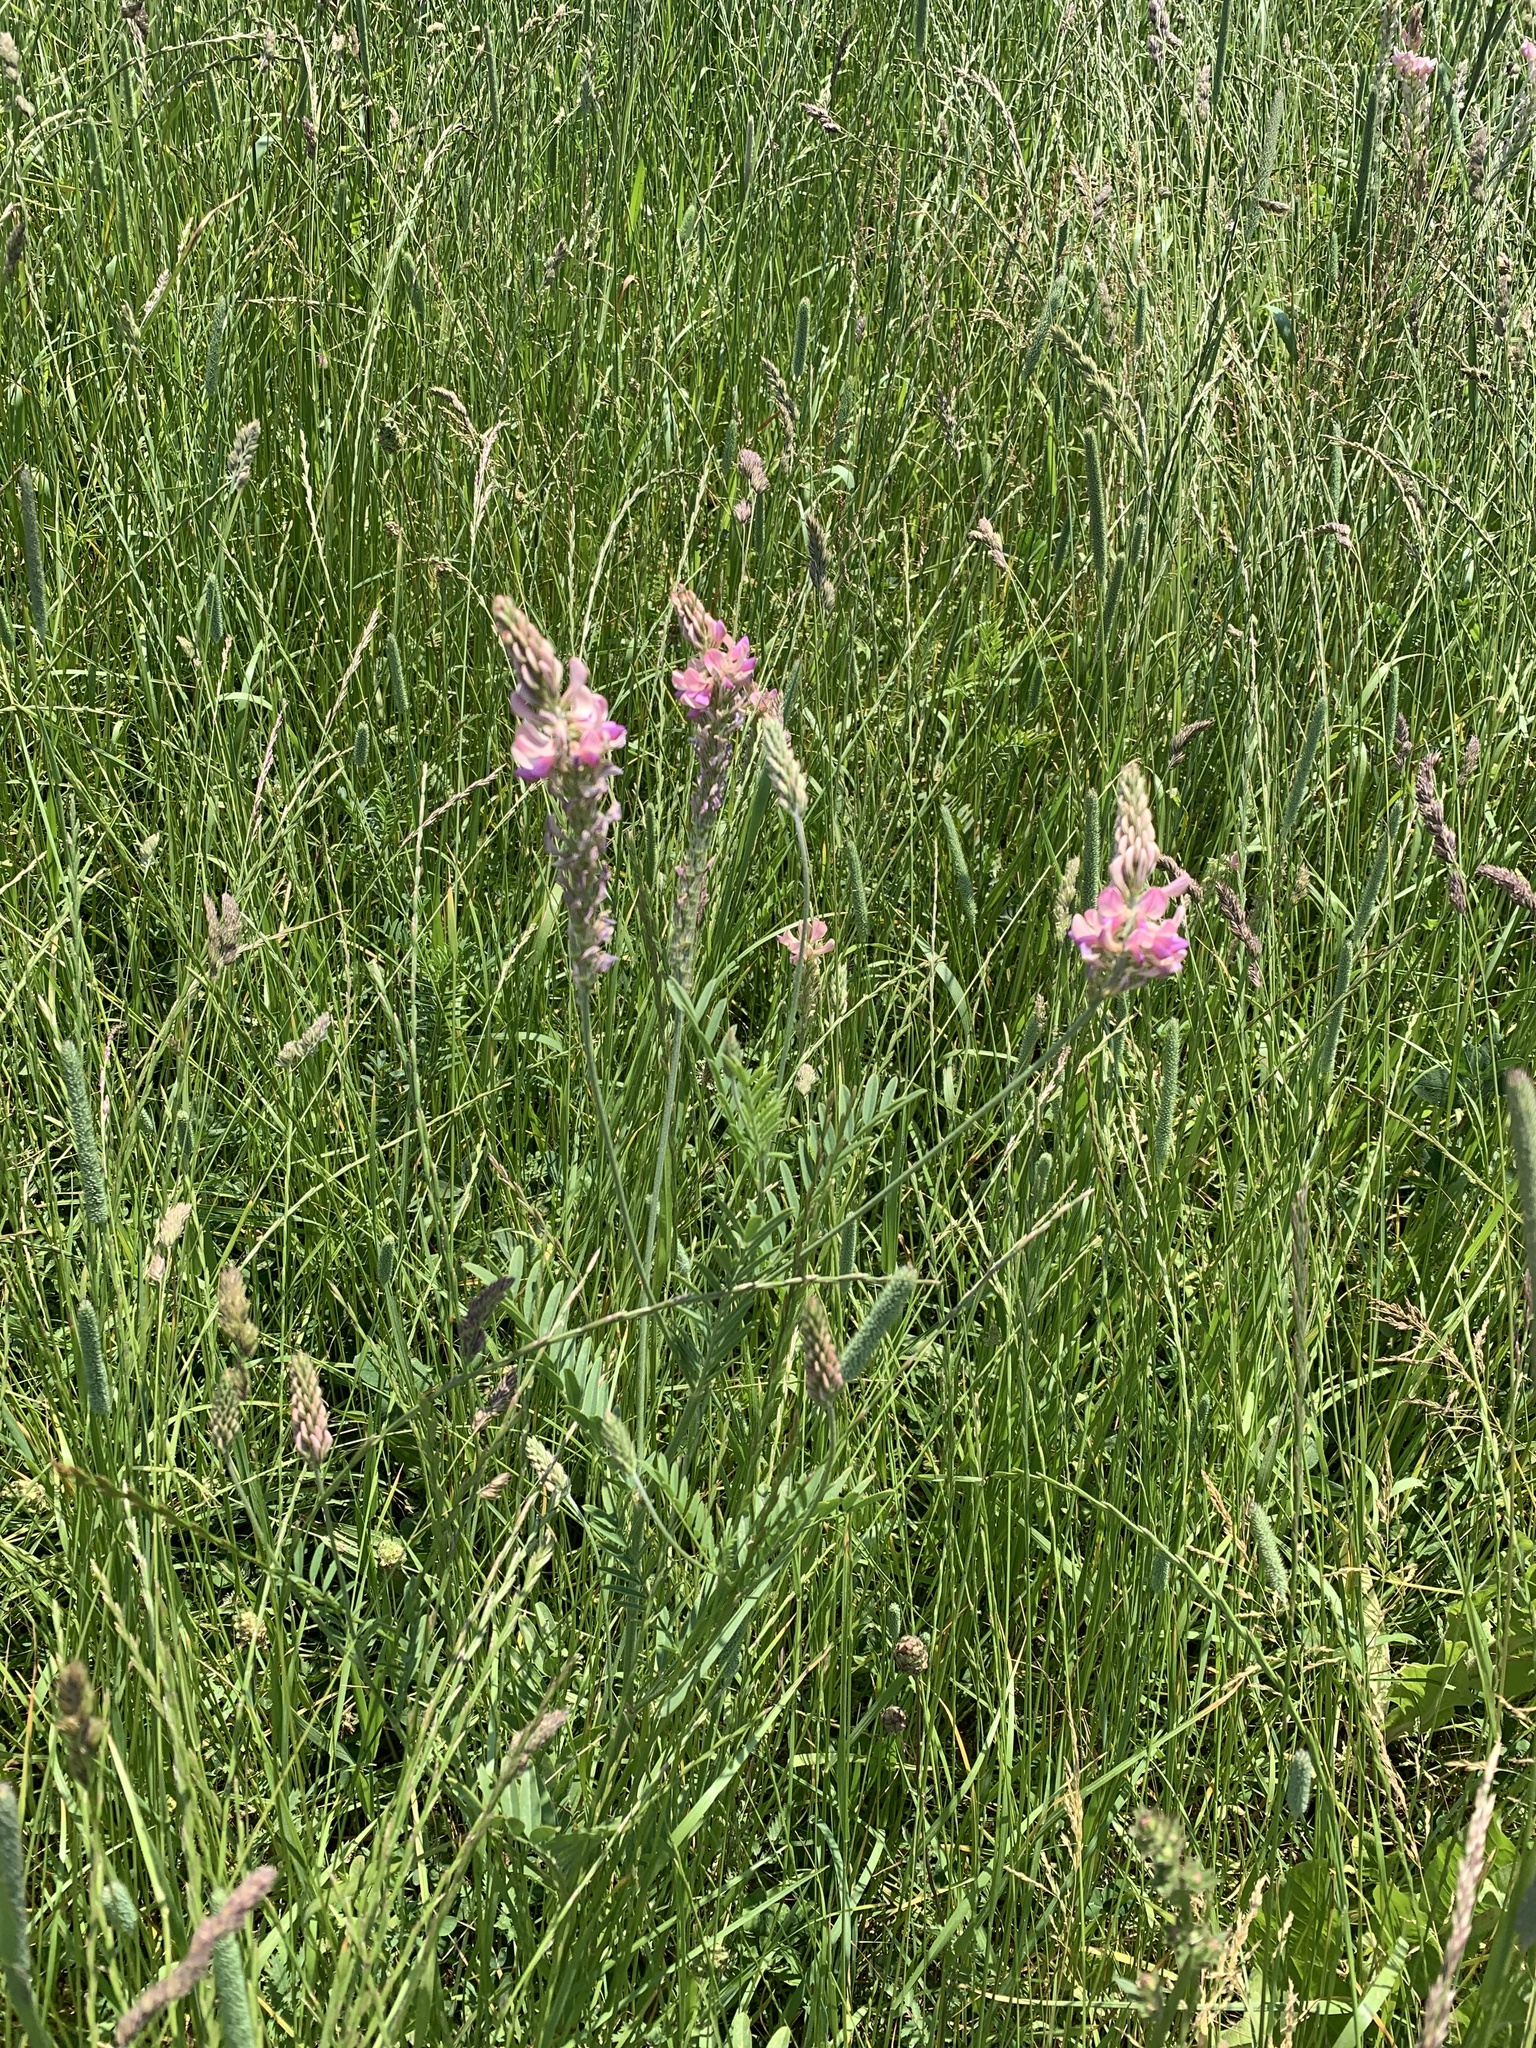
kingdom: Plantae
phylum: Tracheophyta
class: Magnoliopsida
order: Fabales
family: Fabaceae
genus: Onobrychis
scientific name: Onobrychis viciifolia
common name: Sainfoin
